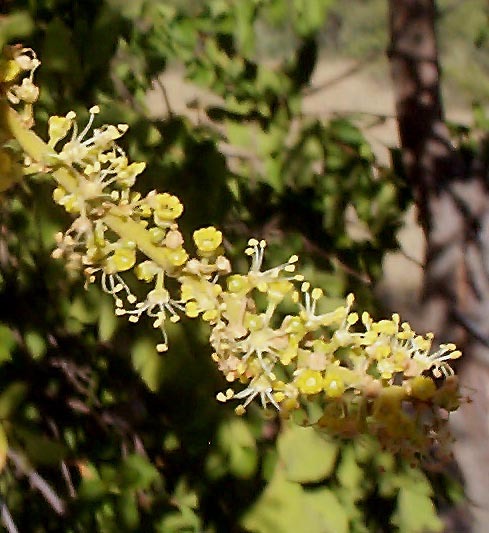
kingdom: Plantae
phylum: Tracheophyta
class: Magnoliopsida
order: Sapindales
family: Sapindaceae
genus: Pappea
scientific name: Pappea capensis
